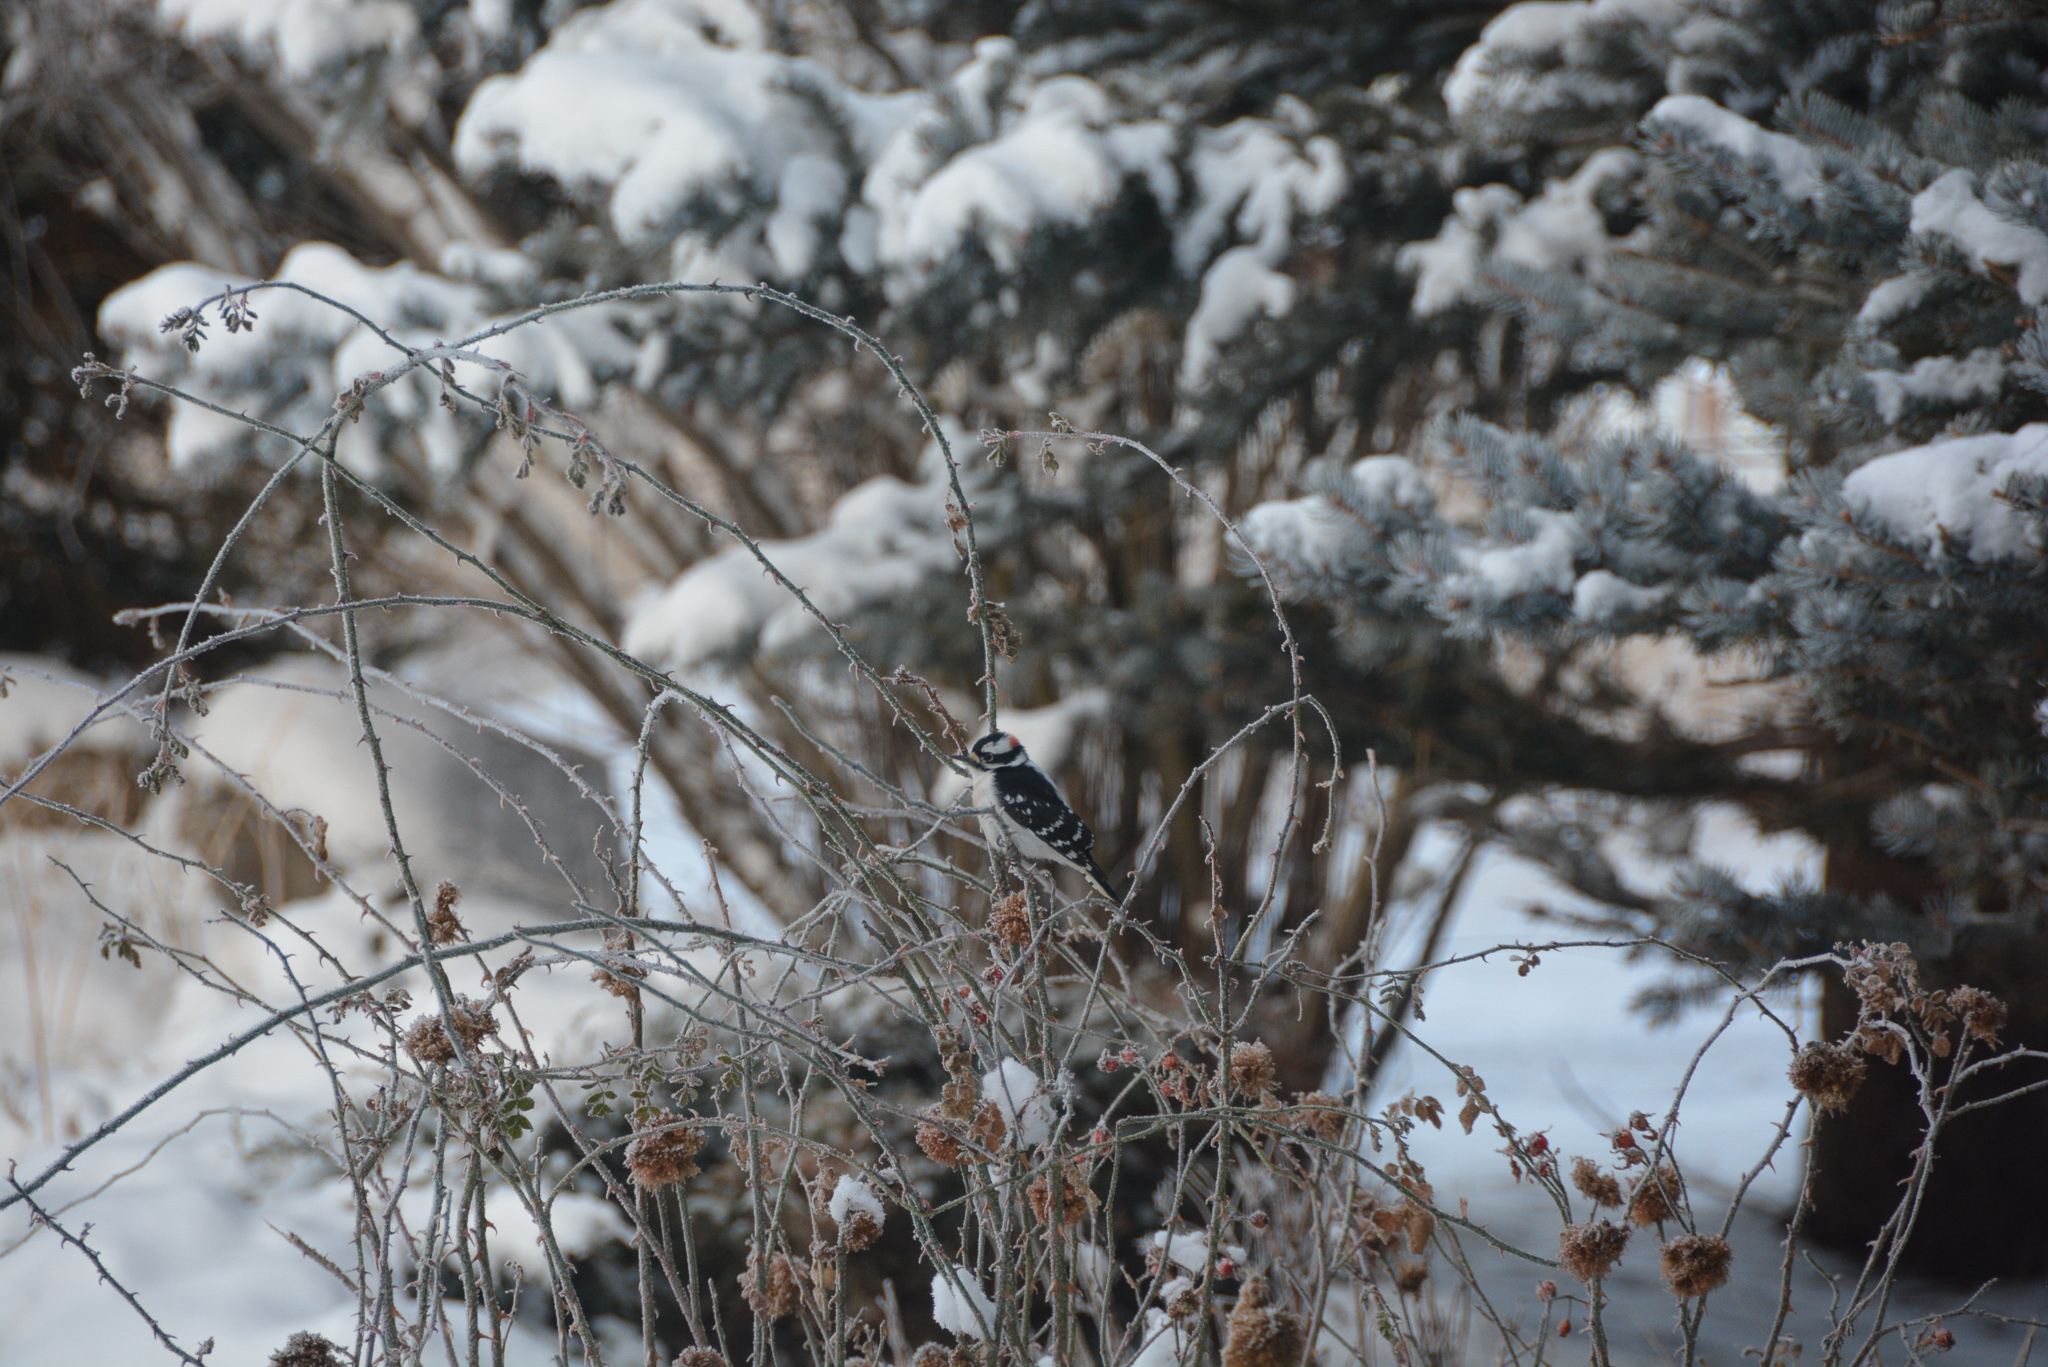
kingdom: Animalia
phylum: Chordata
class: Aves
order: Piciformes
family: Picidae
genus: Dryobates
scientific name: Dryobates pubescens
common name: Downy woodpecker
